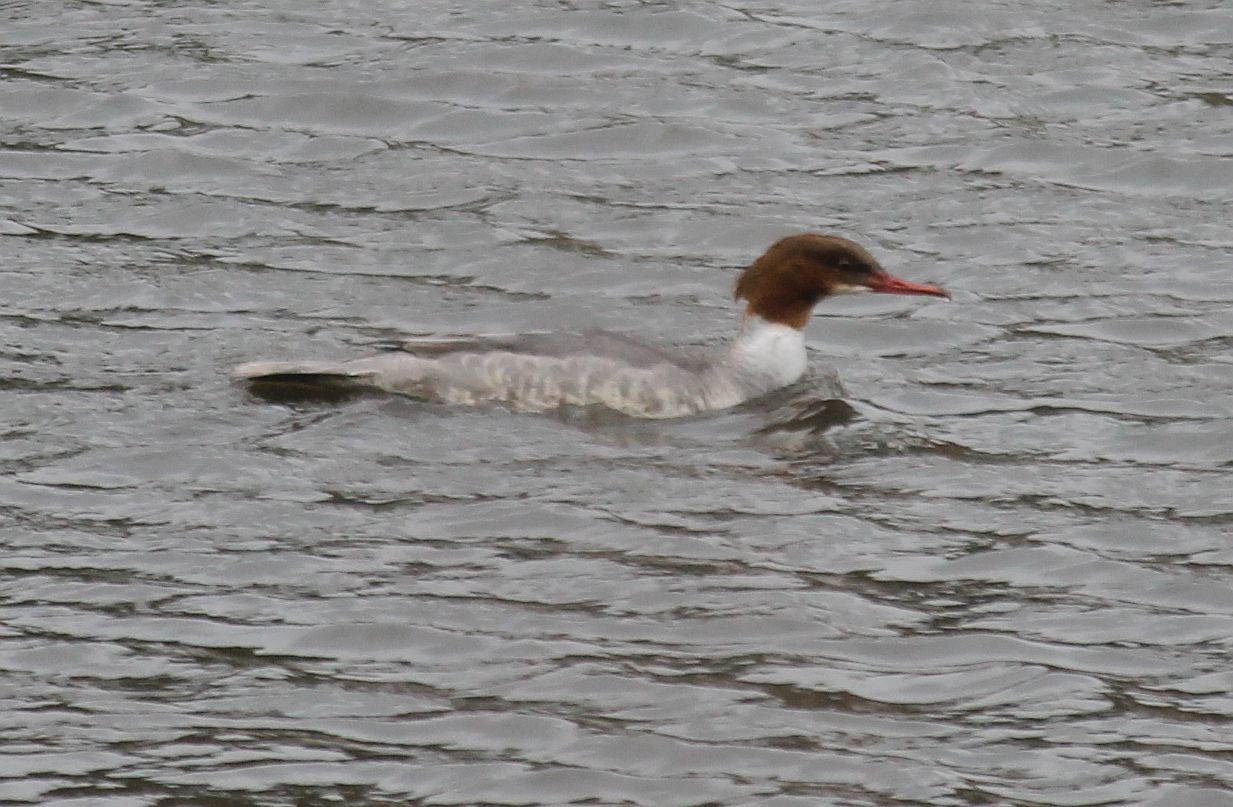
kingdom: Animalia
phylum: Chordata
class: Aves
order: Anseriformes
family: Anatidae
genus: Mergus
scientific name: Mergus merganser
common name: Common merganser
